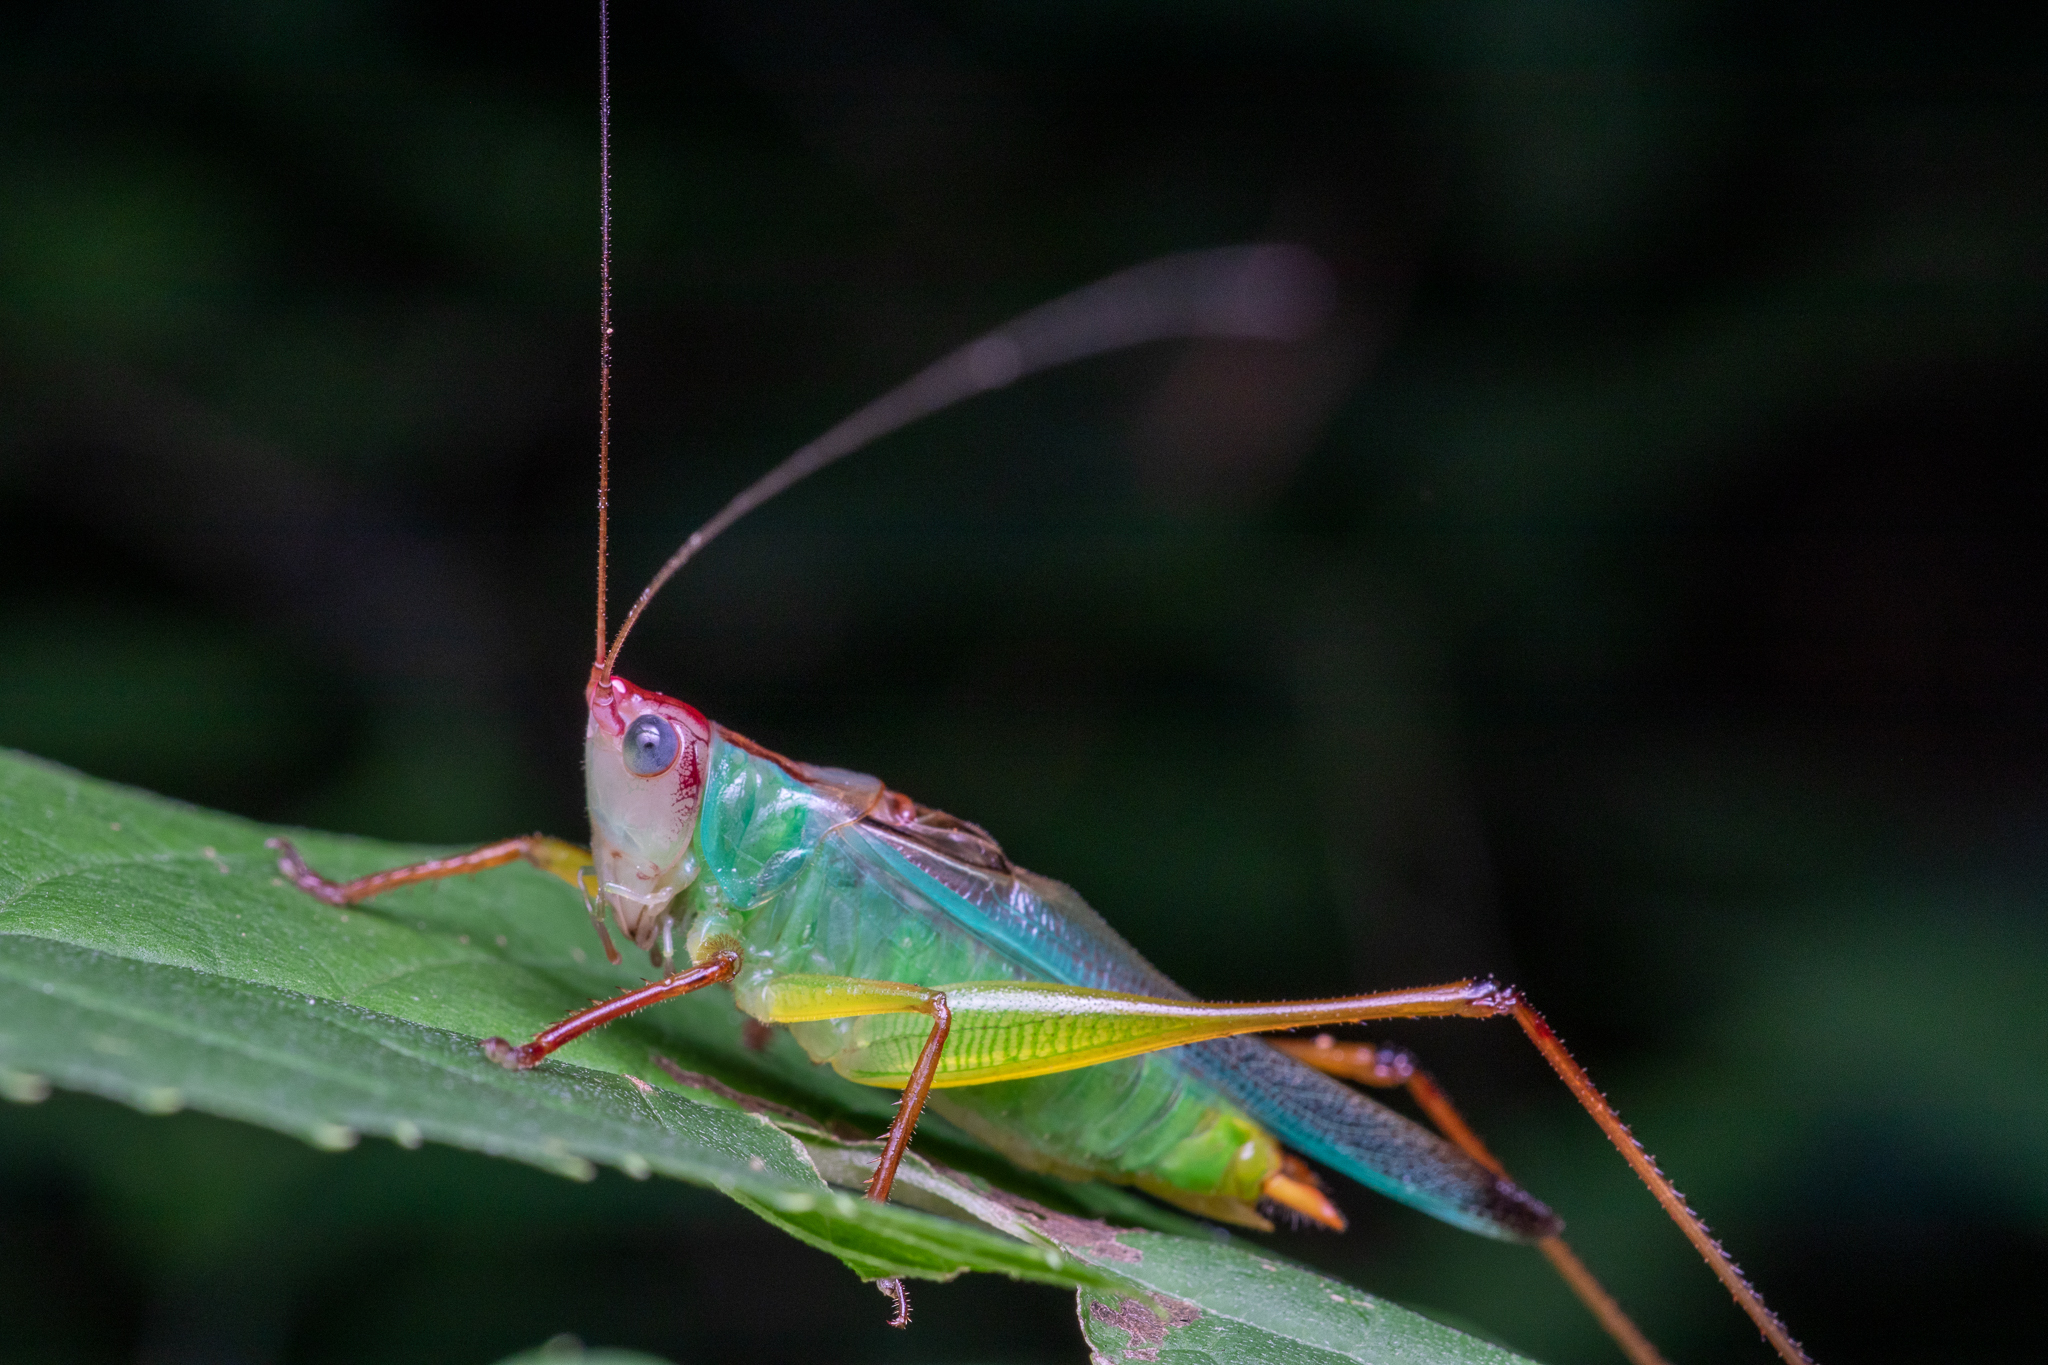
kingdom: Animalia
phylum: Arthropoda
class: Insecta
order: Orthoptera
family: Tettigoniidae
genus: Orchelimum
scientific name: Orchelimum pulchellum
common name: Handsome meadow katydid
